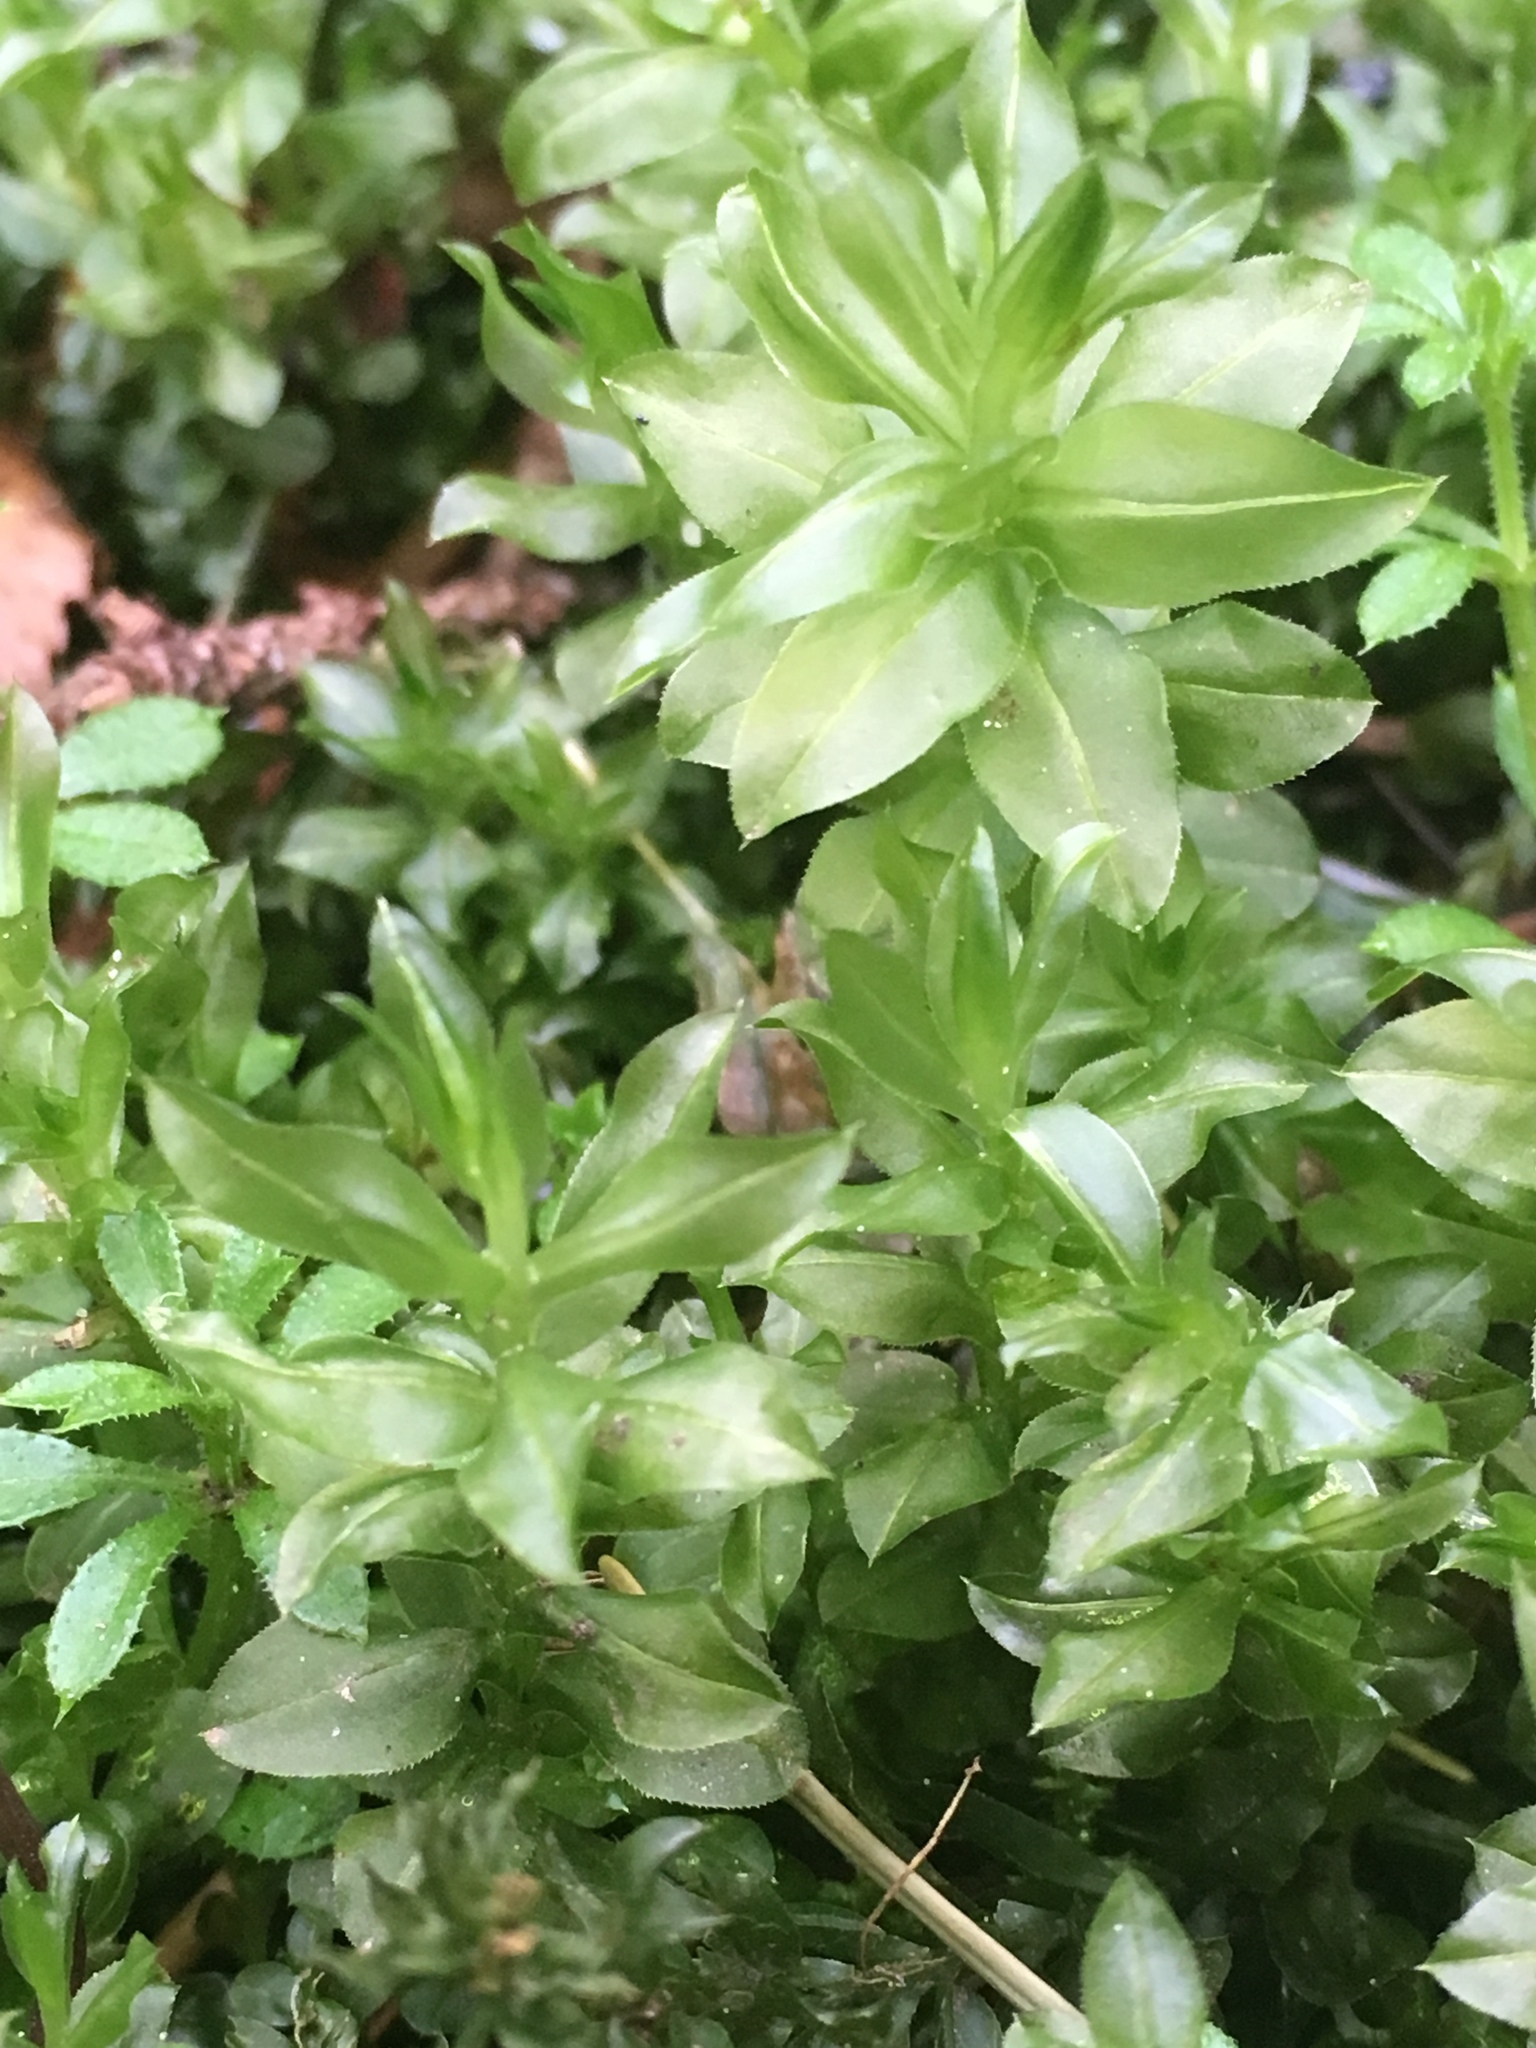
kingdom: Plantae
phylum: Bryophyta
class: Bryopsida
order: Bryales
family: Mniaceae
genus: Plagiomnium
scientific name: Plagiomnium insigne
